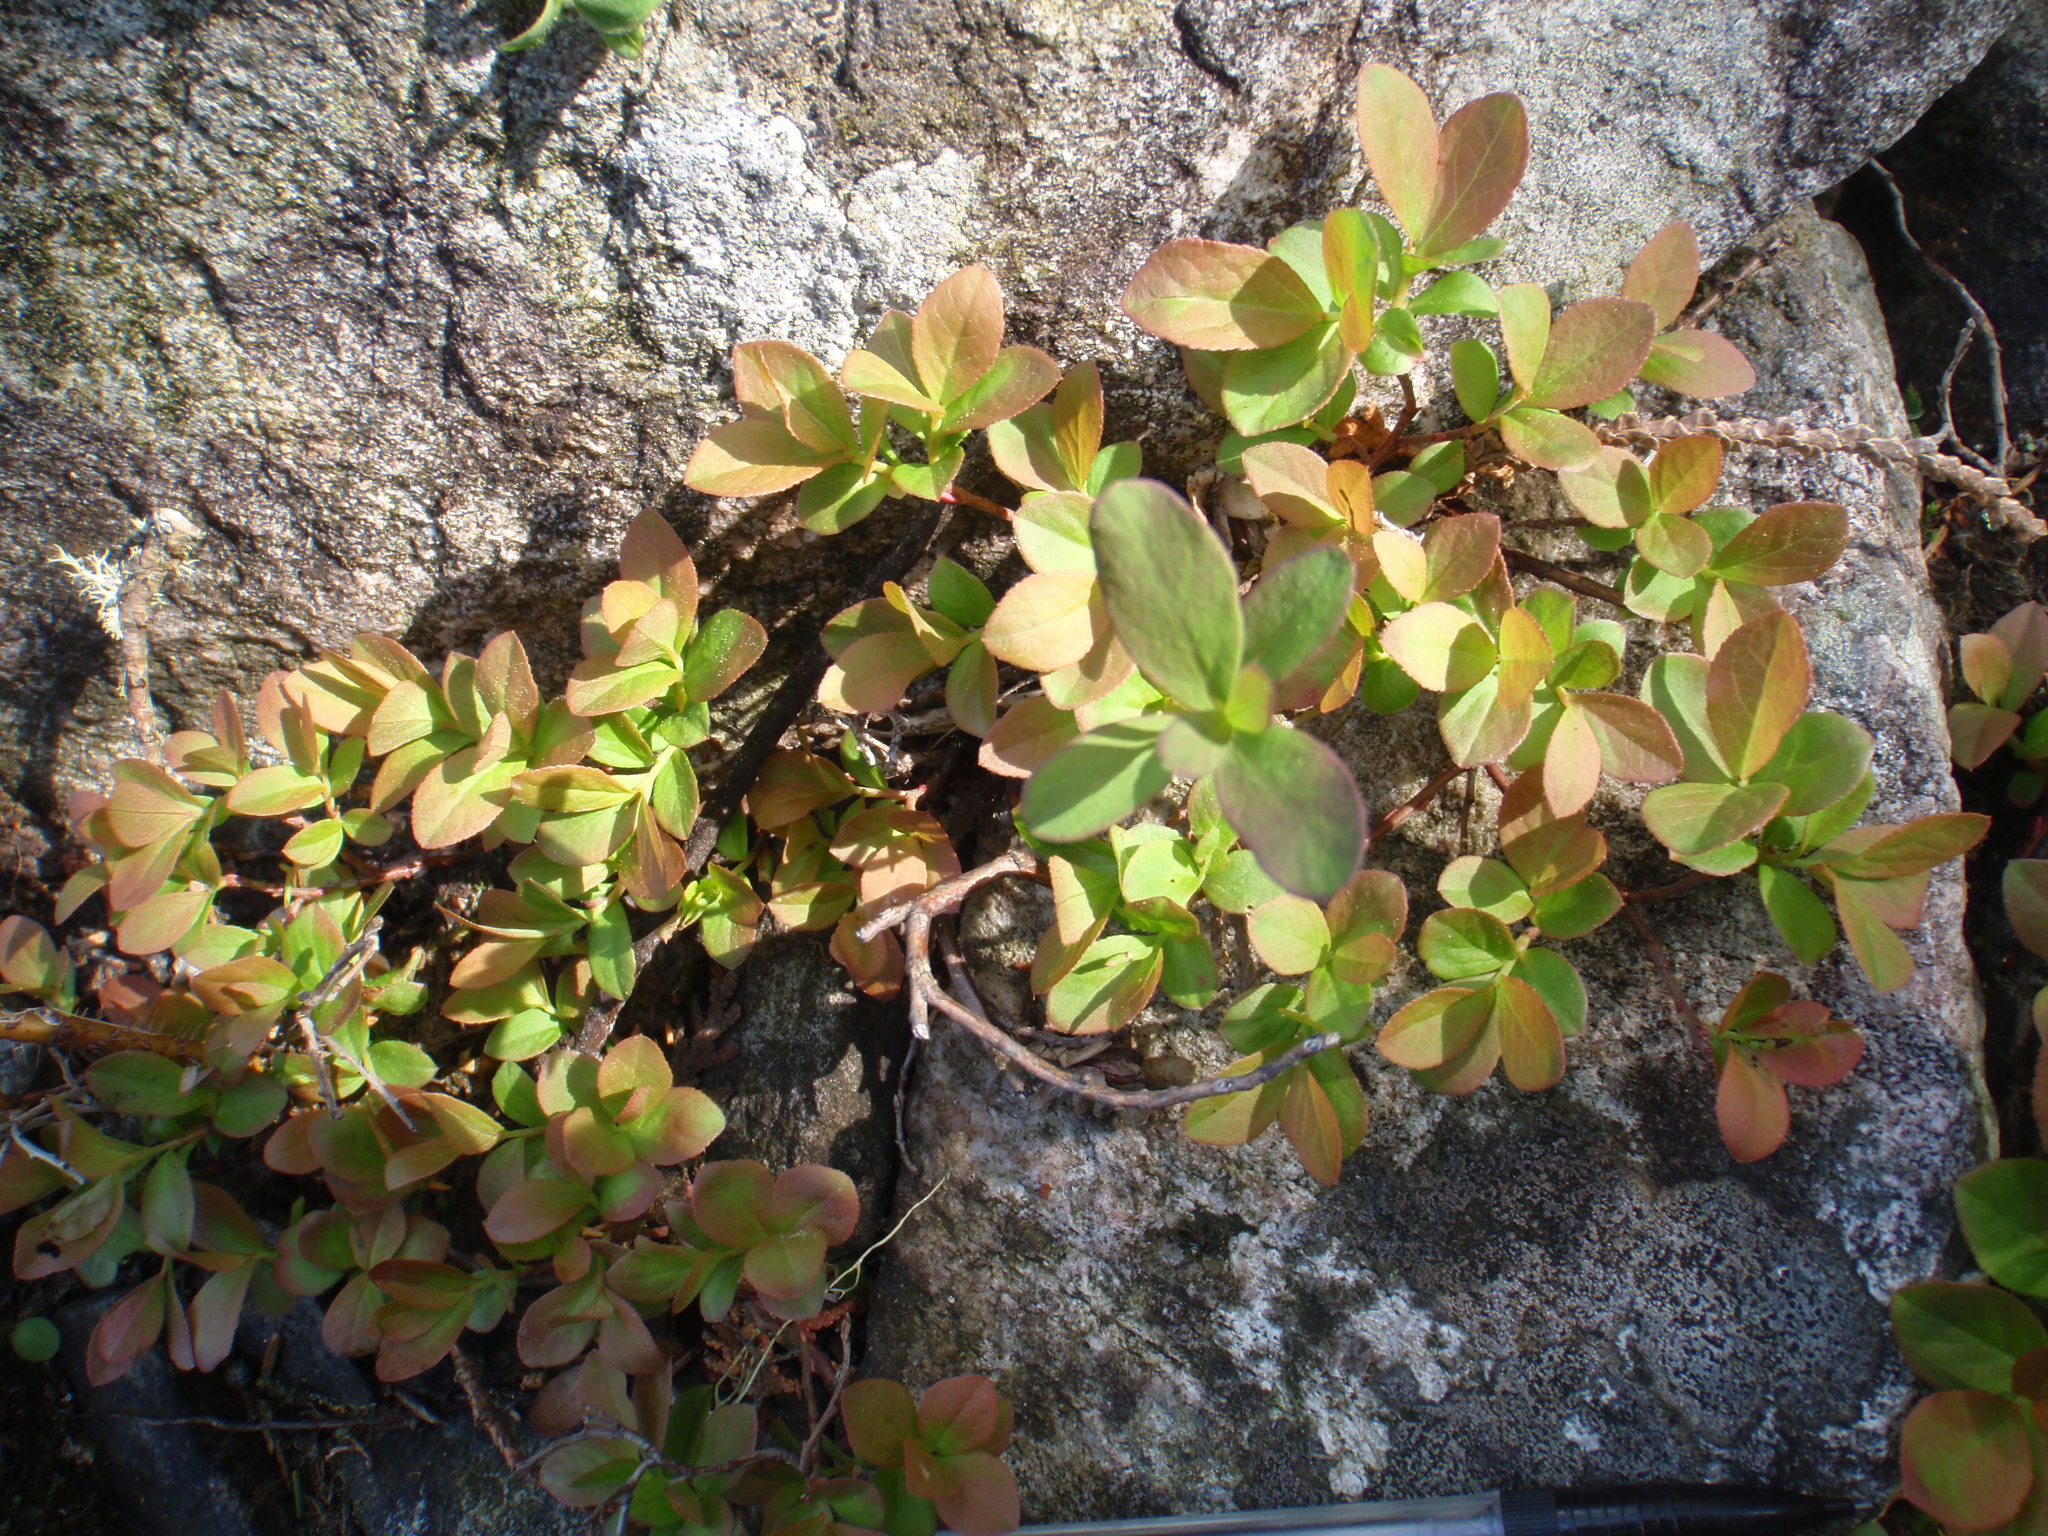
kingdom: Plantae
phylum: Tracheophyta
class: Magnoliopsida
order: Ericales
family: Ericaceae
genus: Vaccinium
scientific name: Vaccinium cespitosum
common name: Dwarf bilberry
